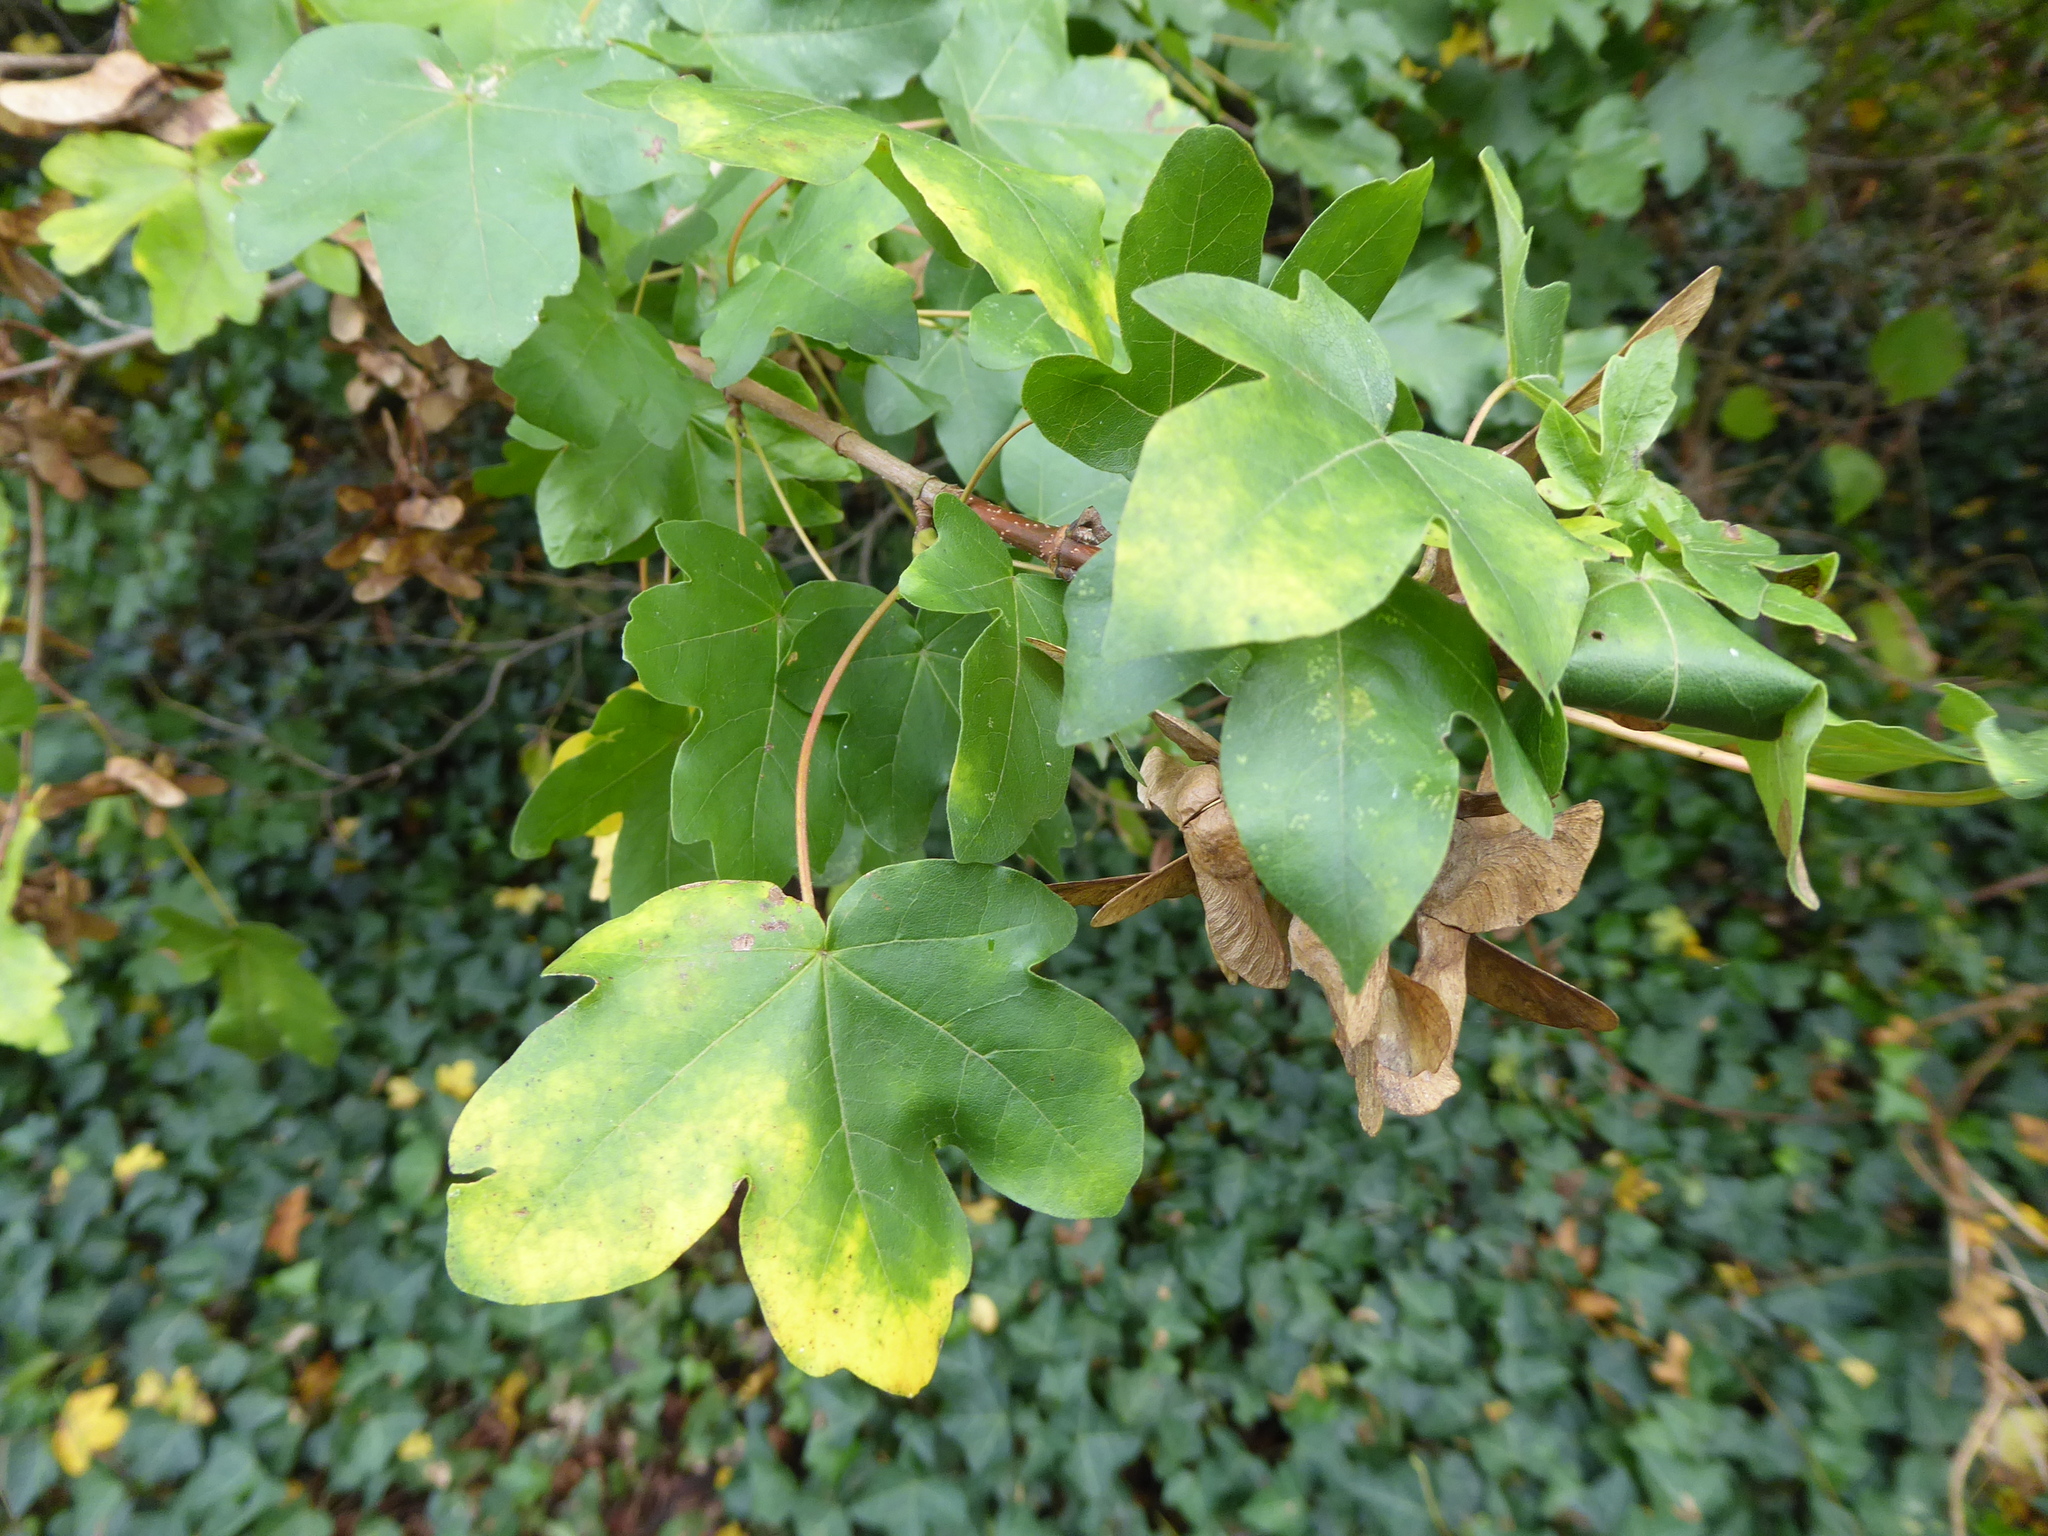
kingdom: Plantae
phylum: Tracheophyta
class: Magnoliopsida
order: Sapindales
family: Sapindaceae
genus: Acer
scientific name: Acer campestre
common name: Field maple
